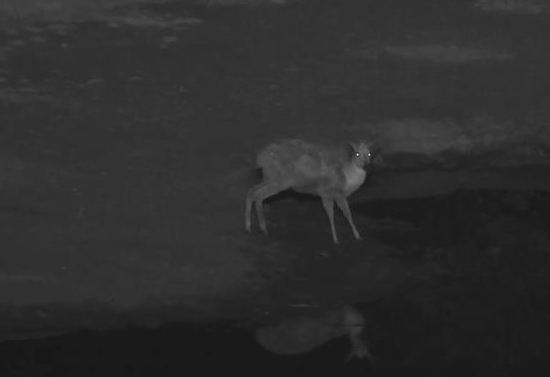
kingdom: Animalia
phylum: Chordata
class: Mammalia
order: Artiodactyla
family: Bovidae
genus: Sylvicapra
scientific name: Sylvicapra grimmia
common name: Bush duiker
